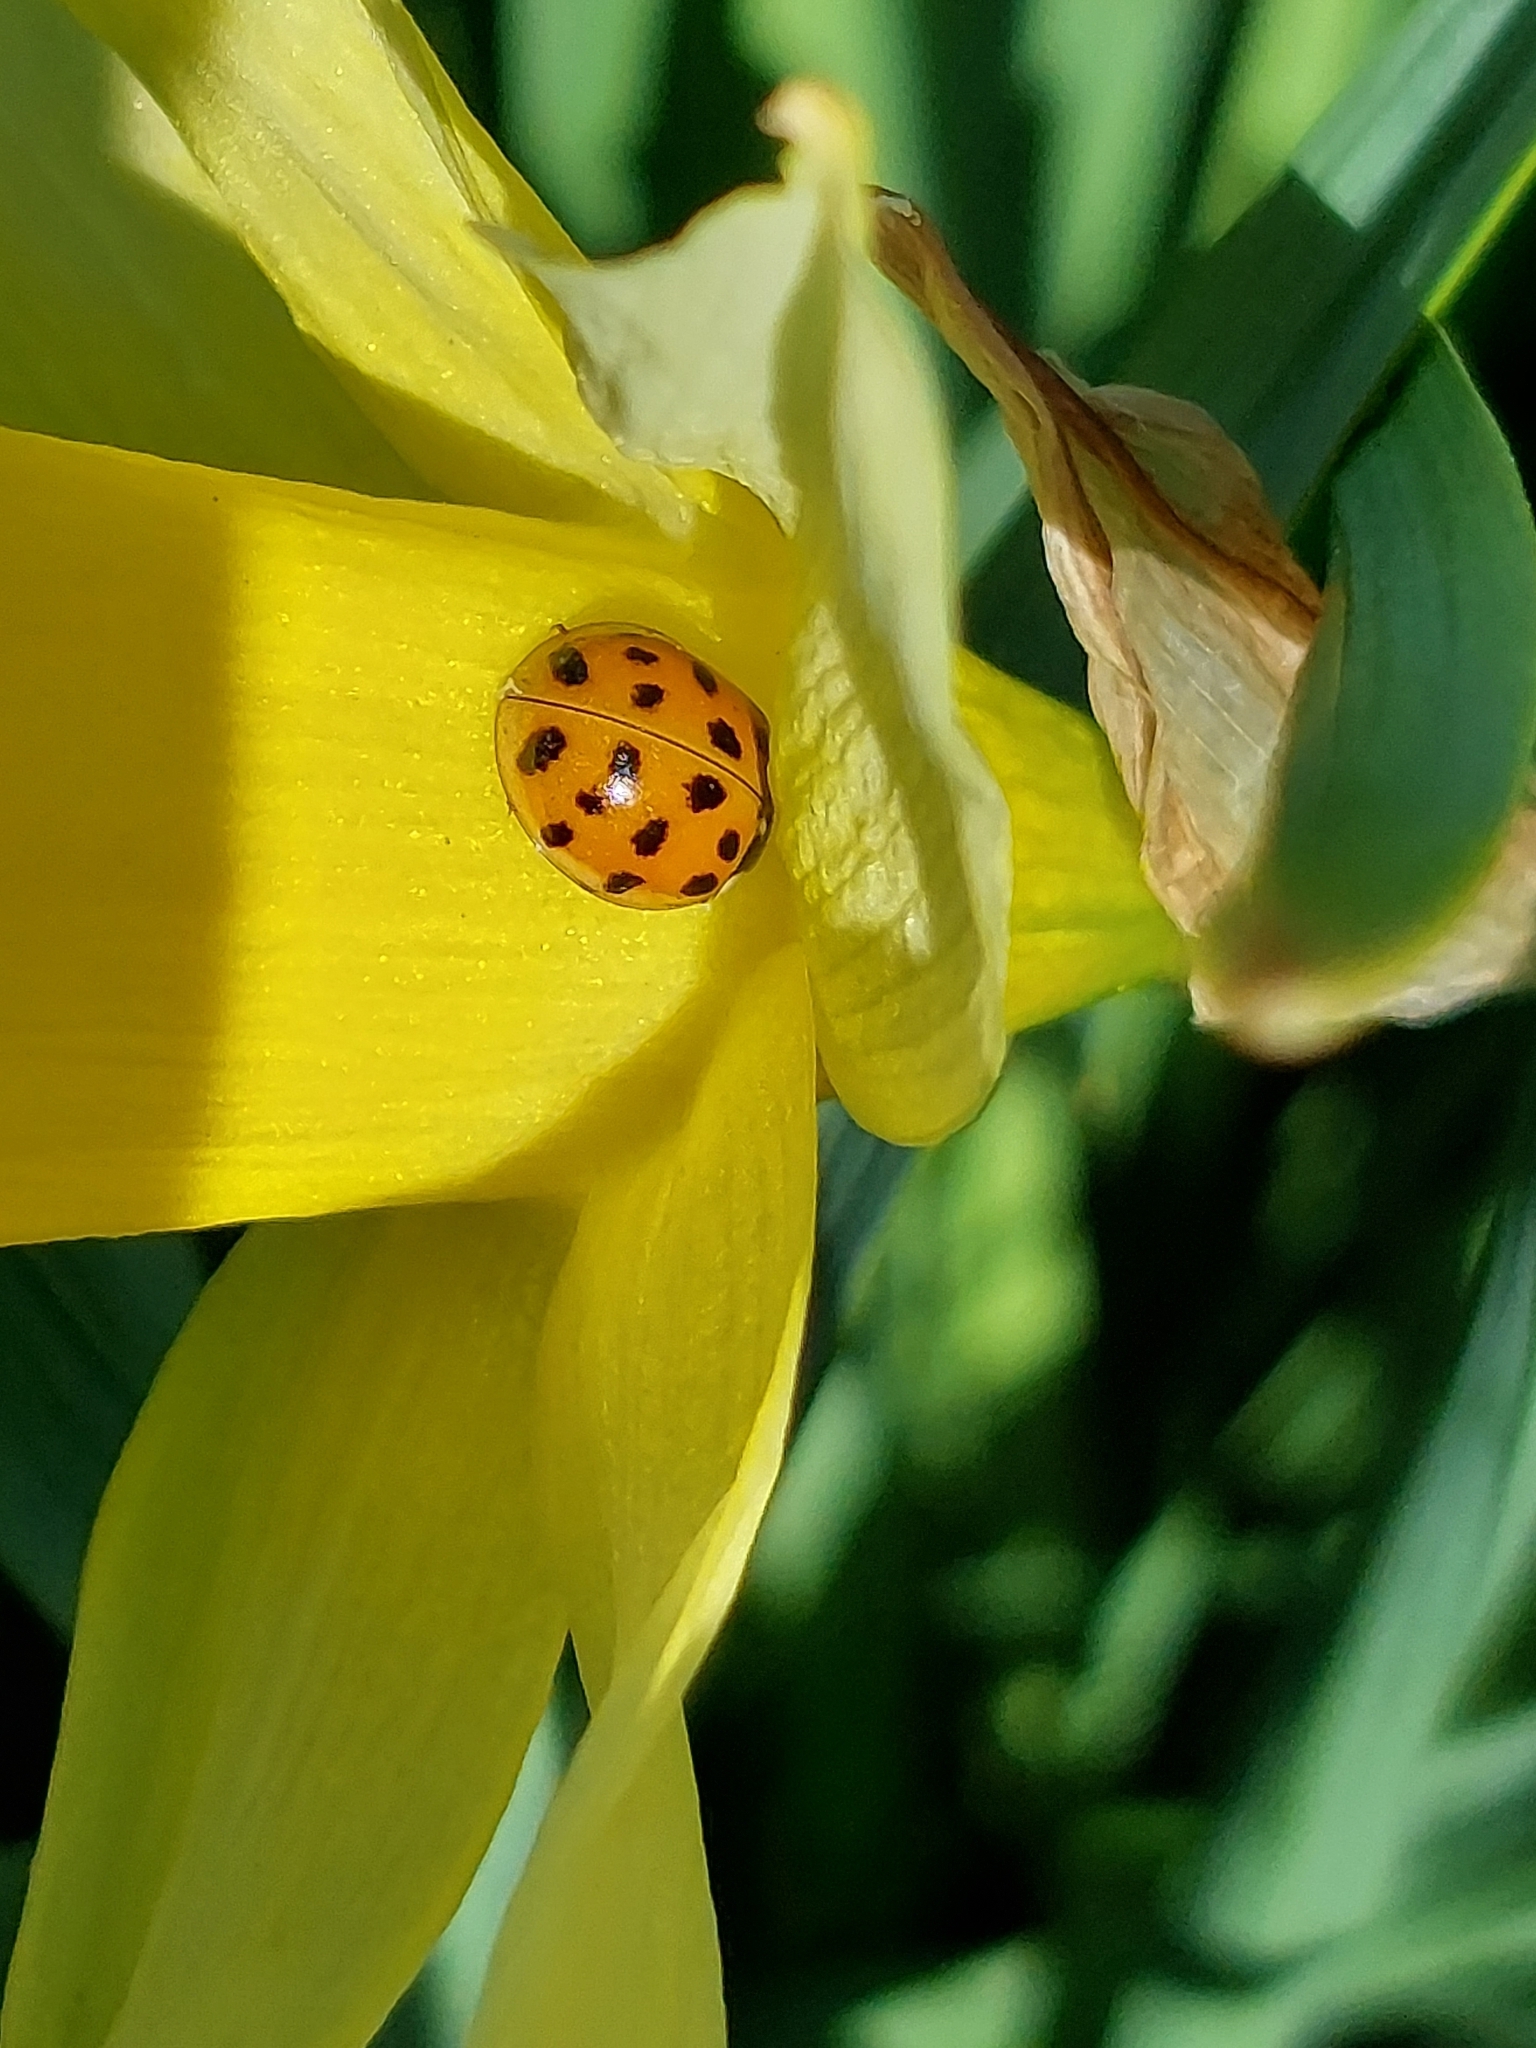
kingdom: Animalia
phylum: Arthropoda
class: Insecta
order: Coleoptera
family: Coccinellidae
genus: Harmonia
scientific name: Harmonia axyridis
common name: Harlequin ladybird
